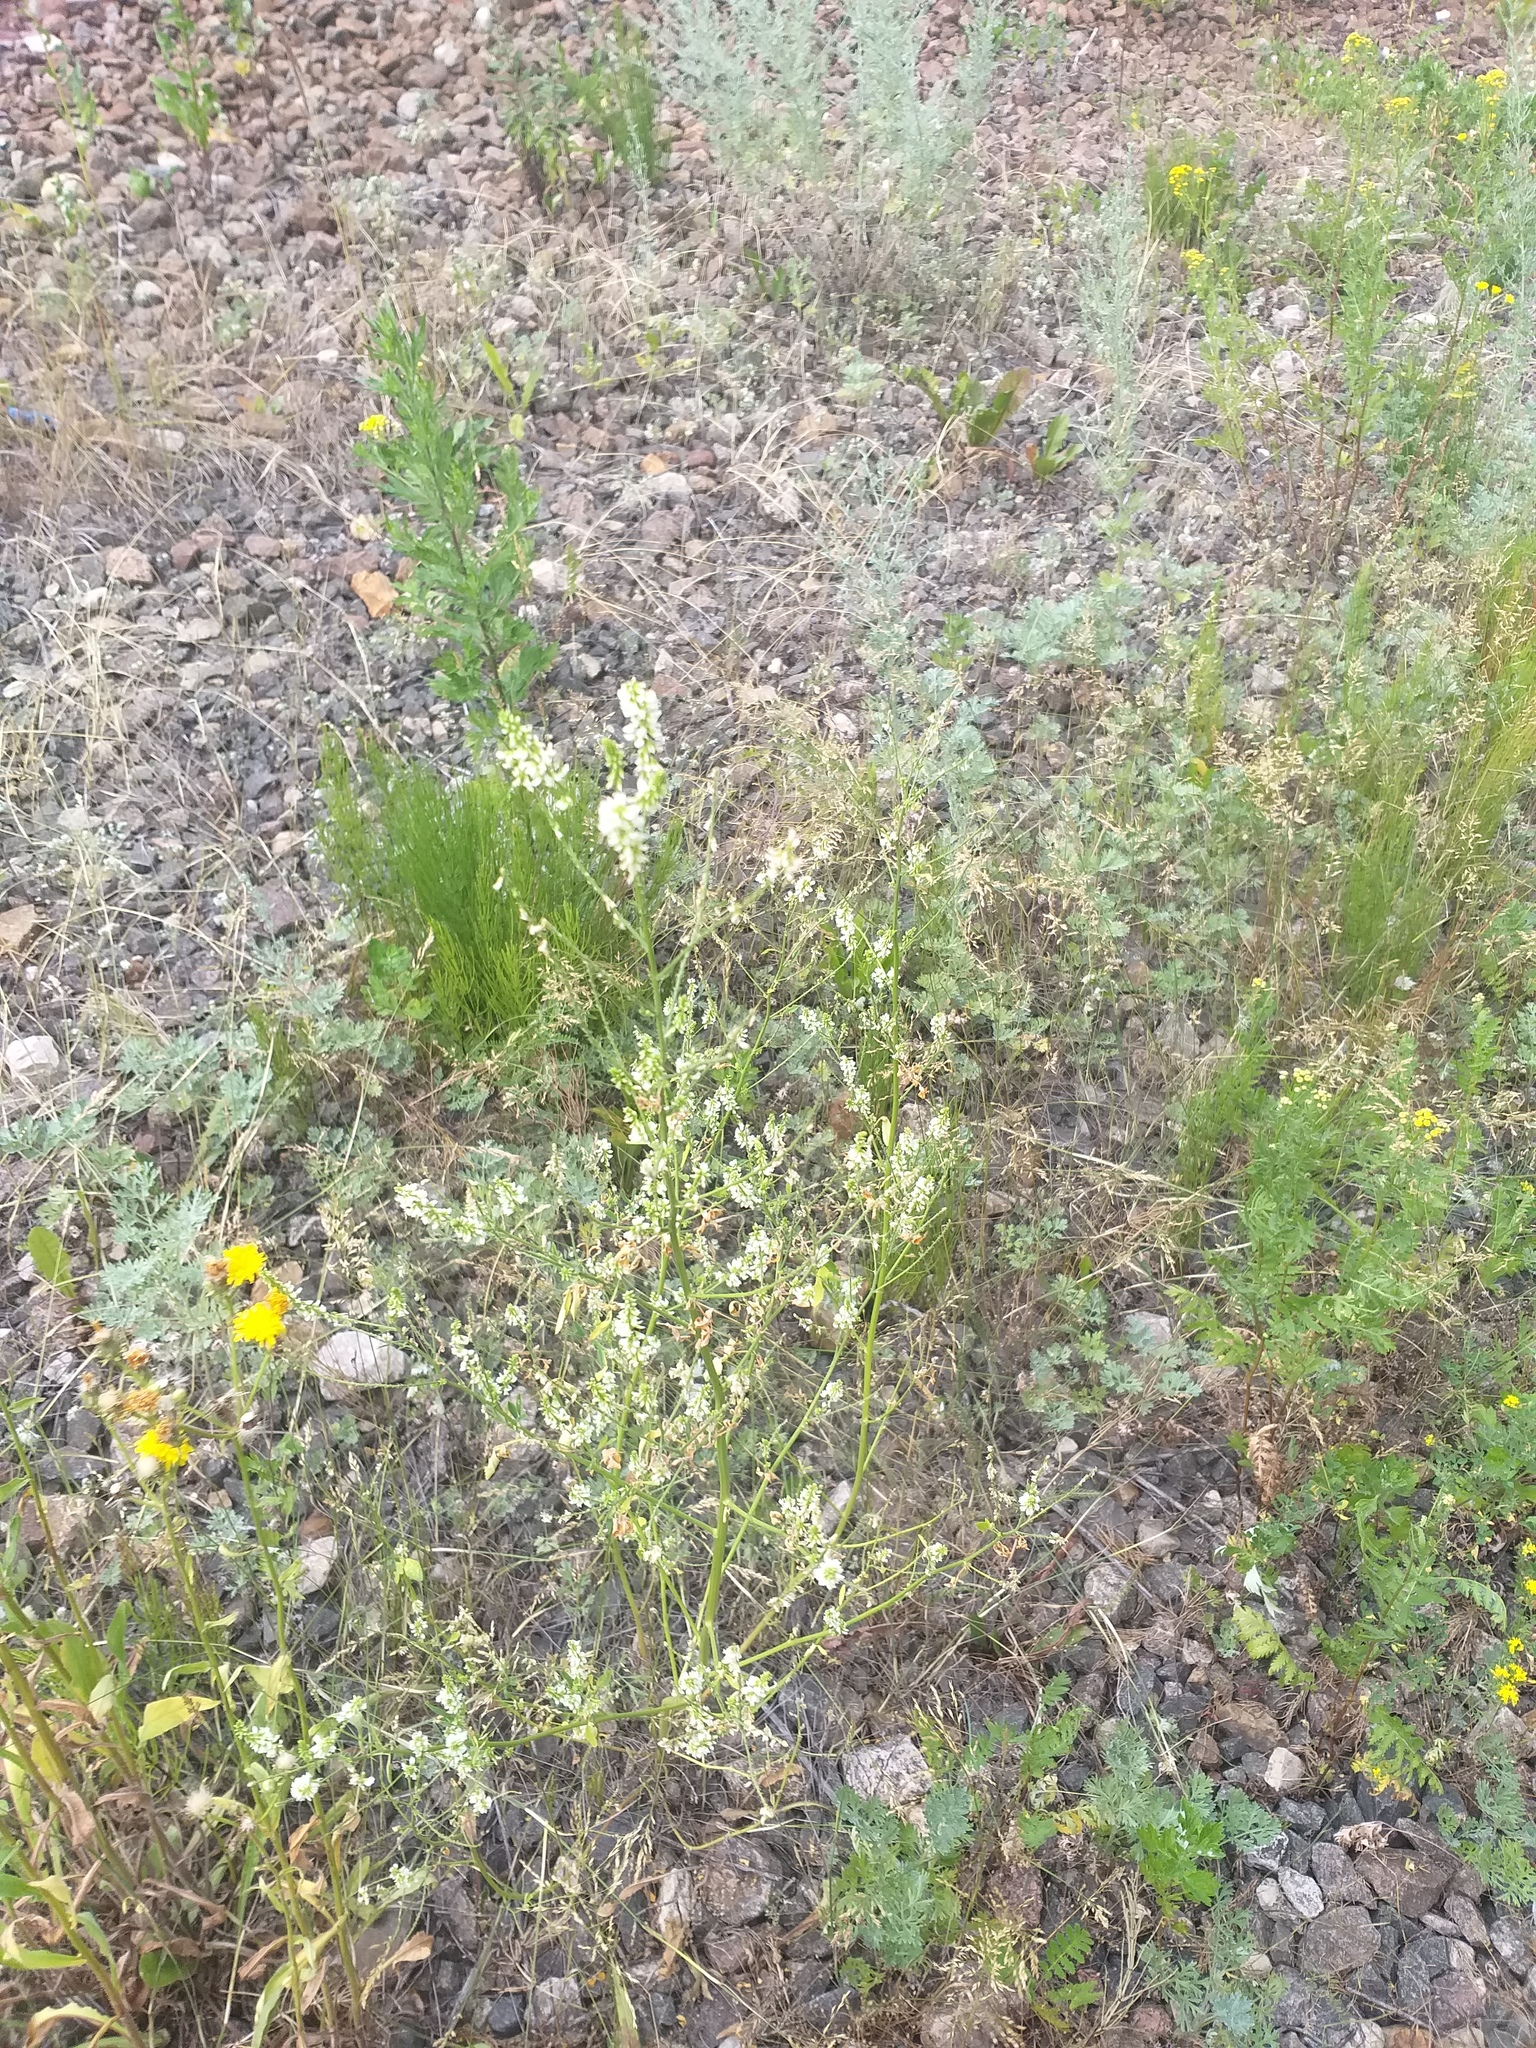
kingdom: Plantae
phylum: Tracheophyta
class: Magnoliopsida
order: Fabales
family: Fabaceae
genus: Melilotus
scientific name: Melilotus albus
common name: White melilot
